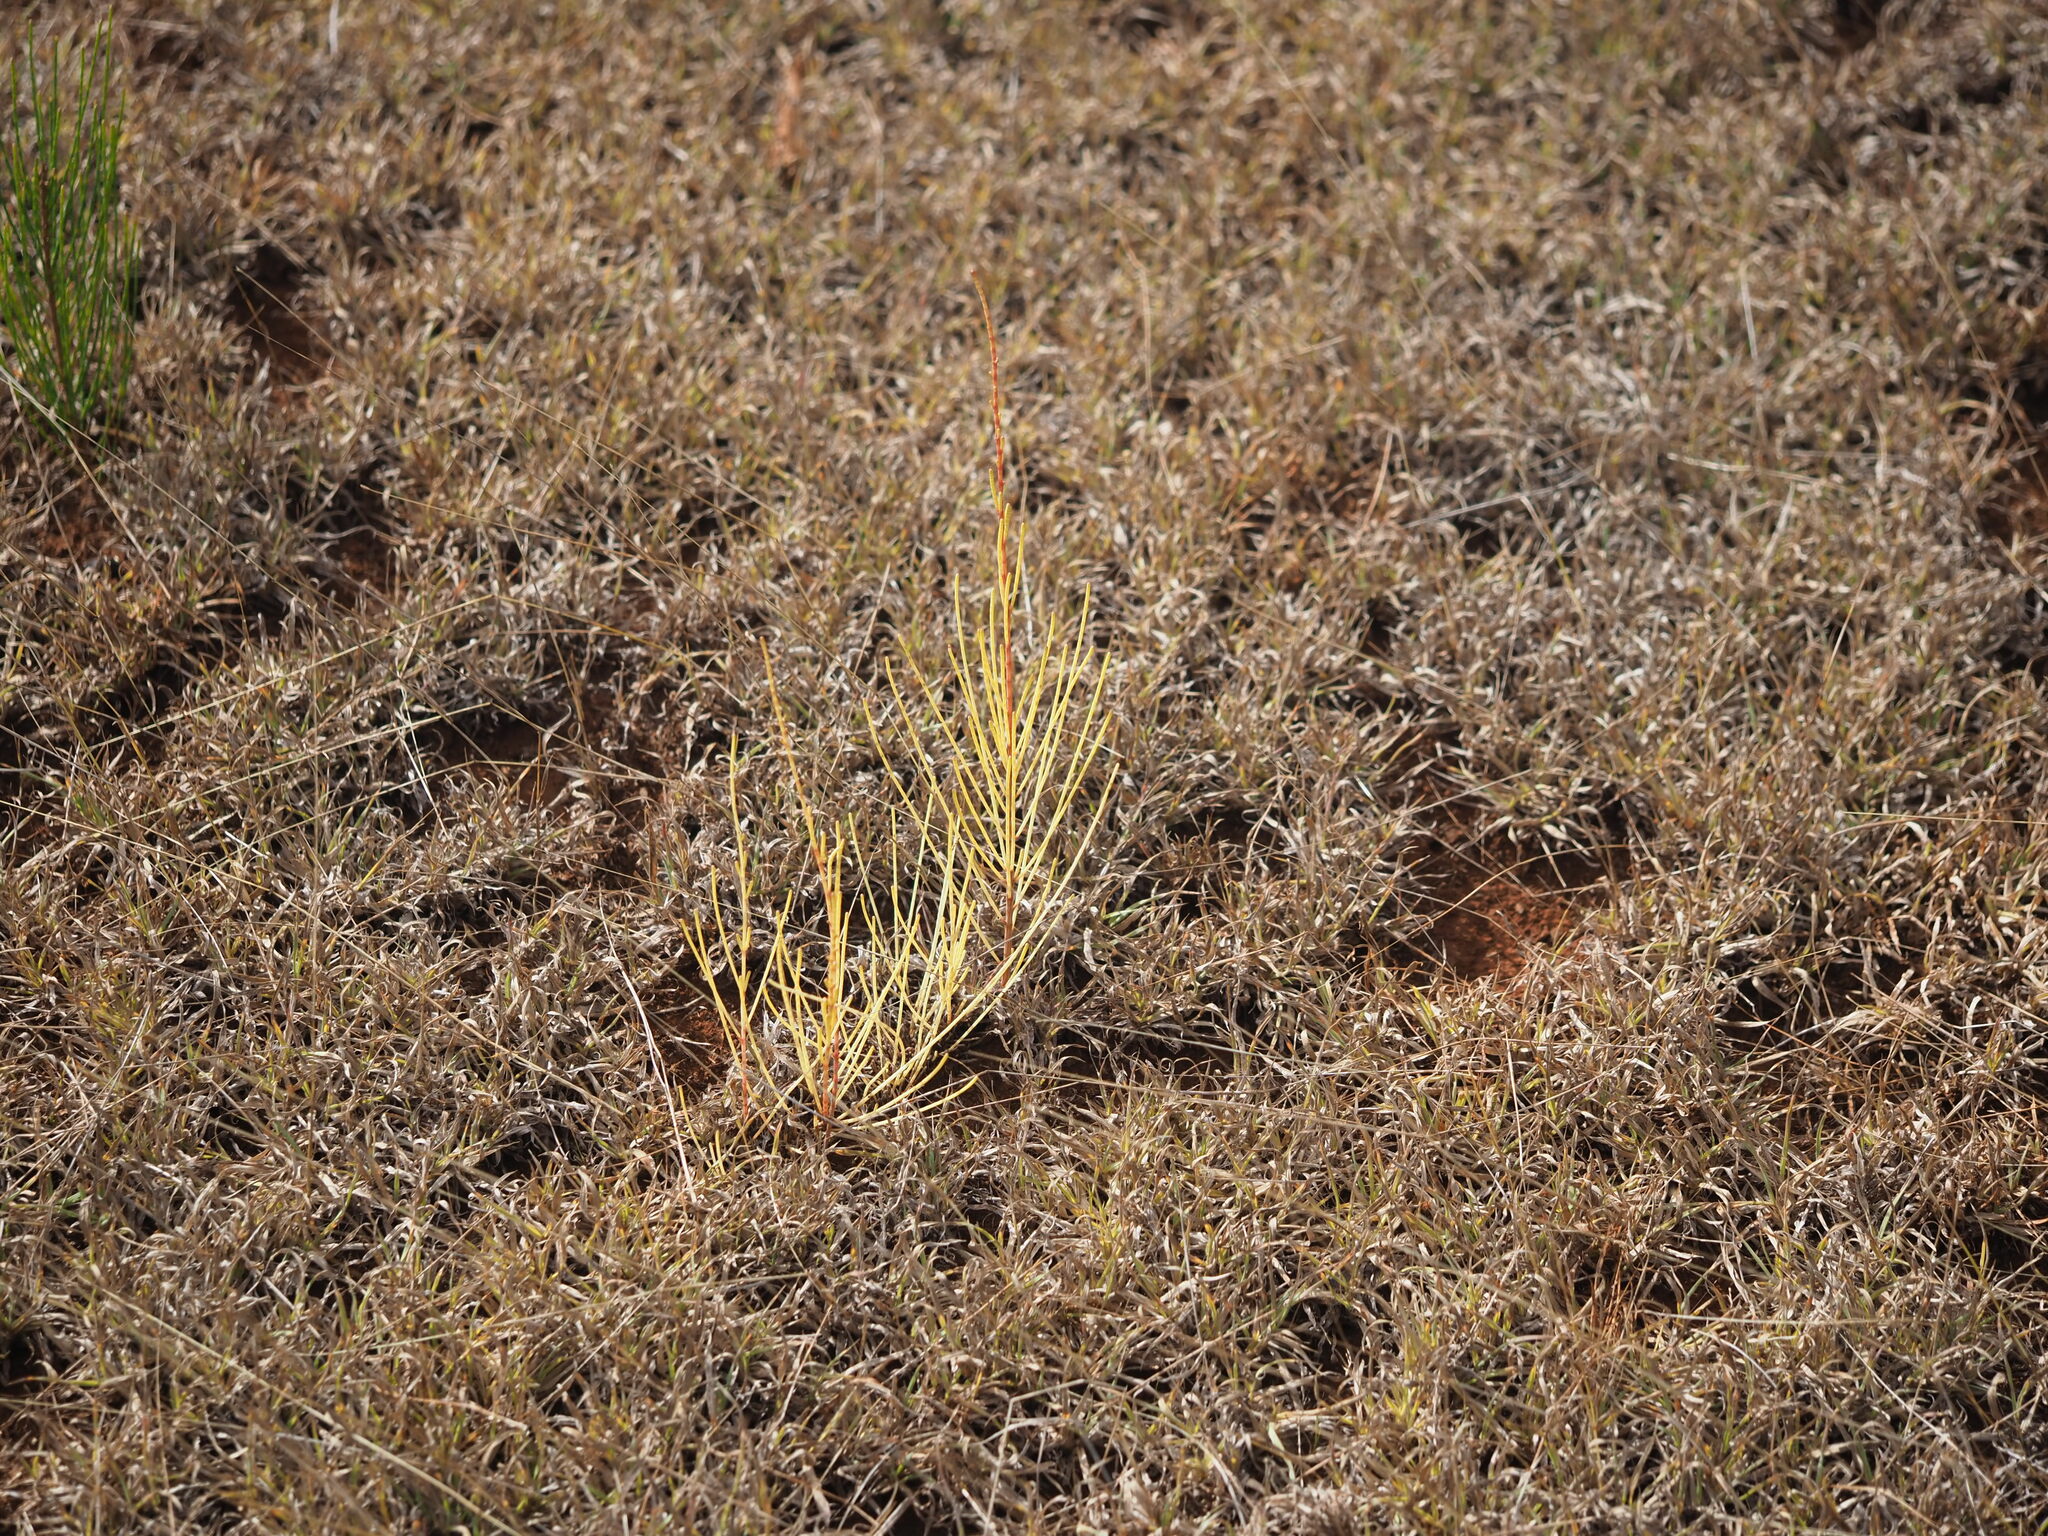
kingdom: Plantae
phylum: Tracheophyta
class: Magnoliopsida
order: Fagales
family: Casuarinaceae
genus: Casuarina
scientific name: Casuarina equisetifolia
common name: Beach sheoak
